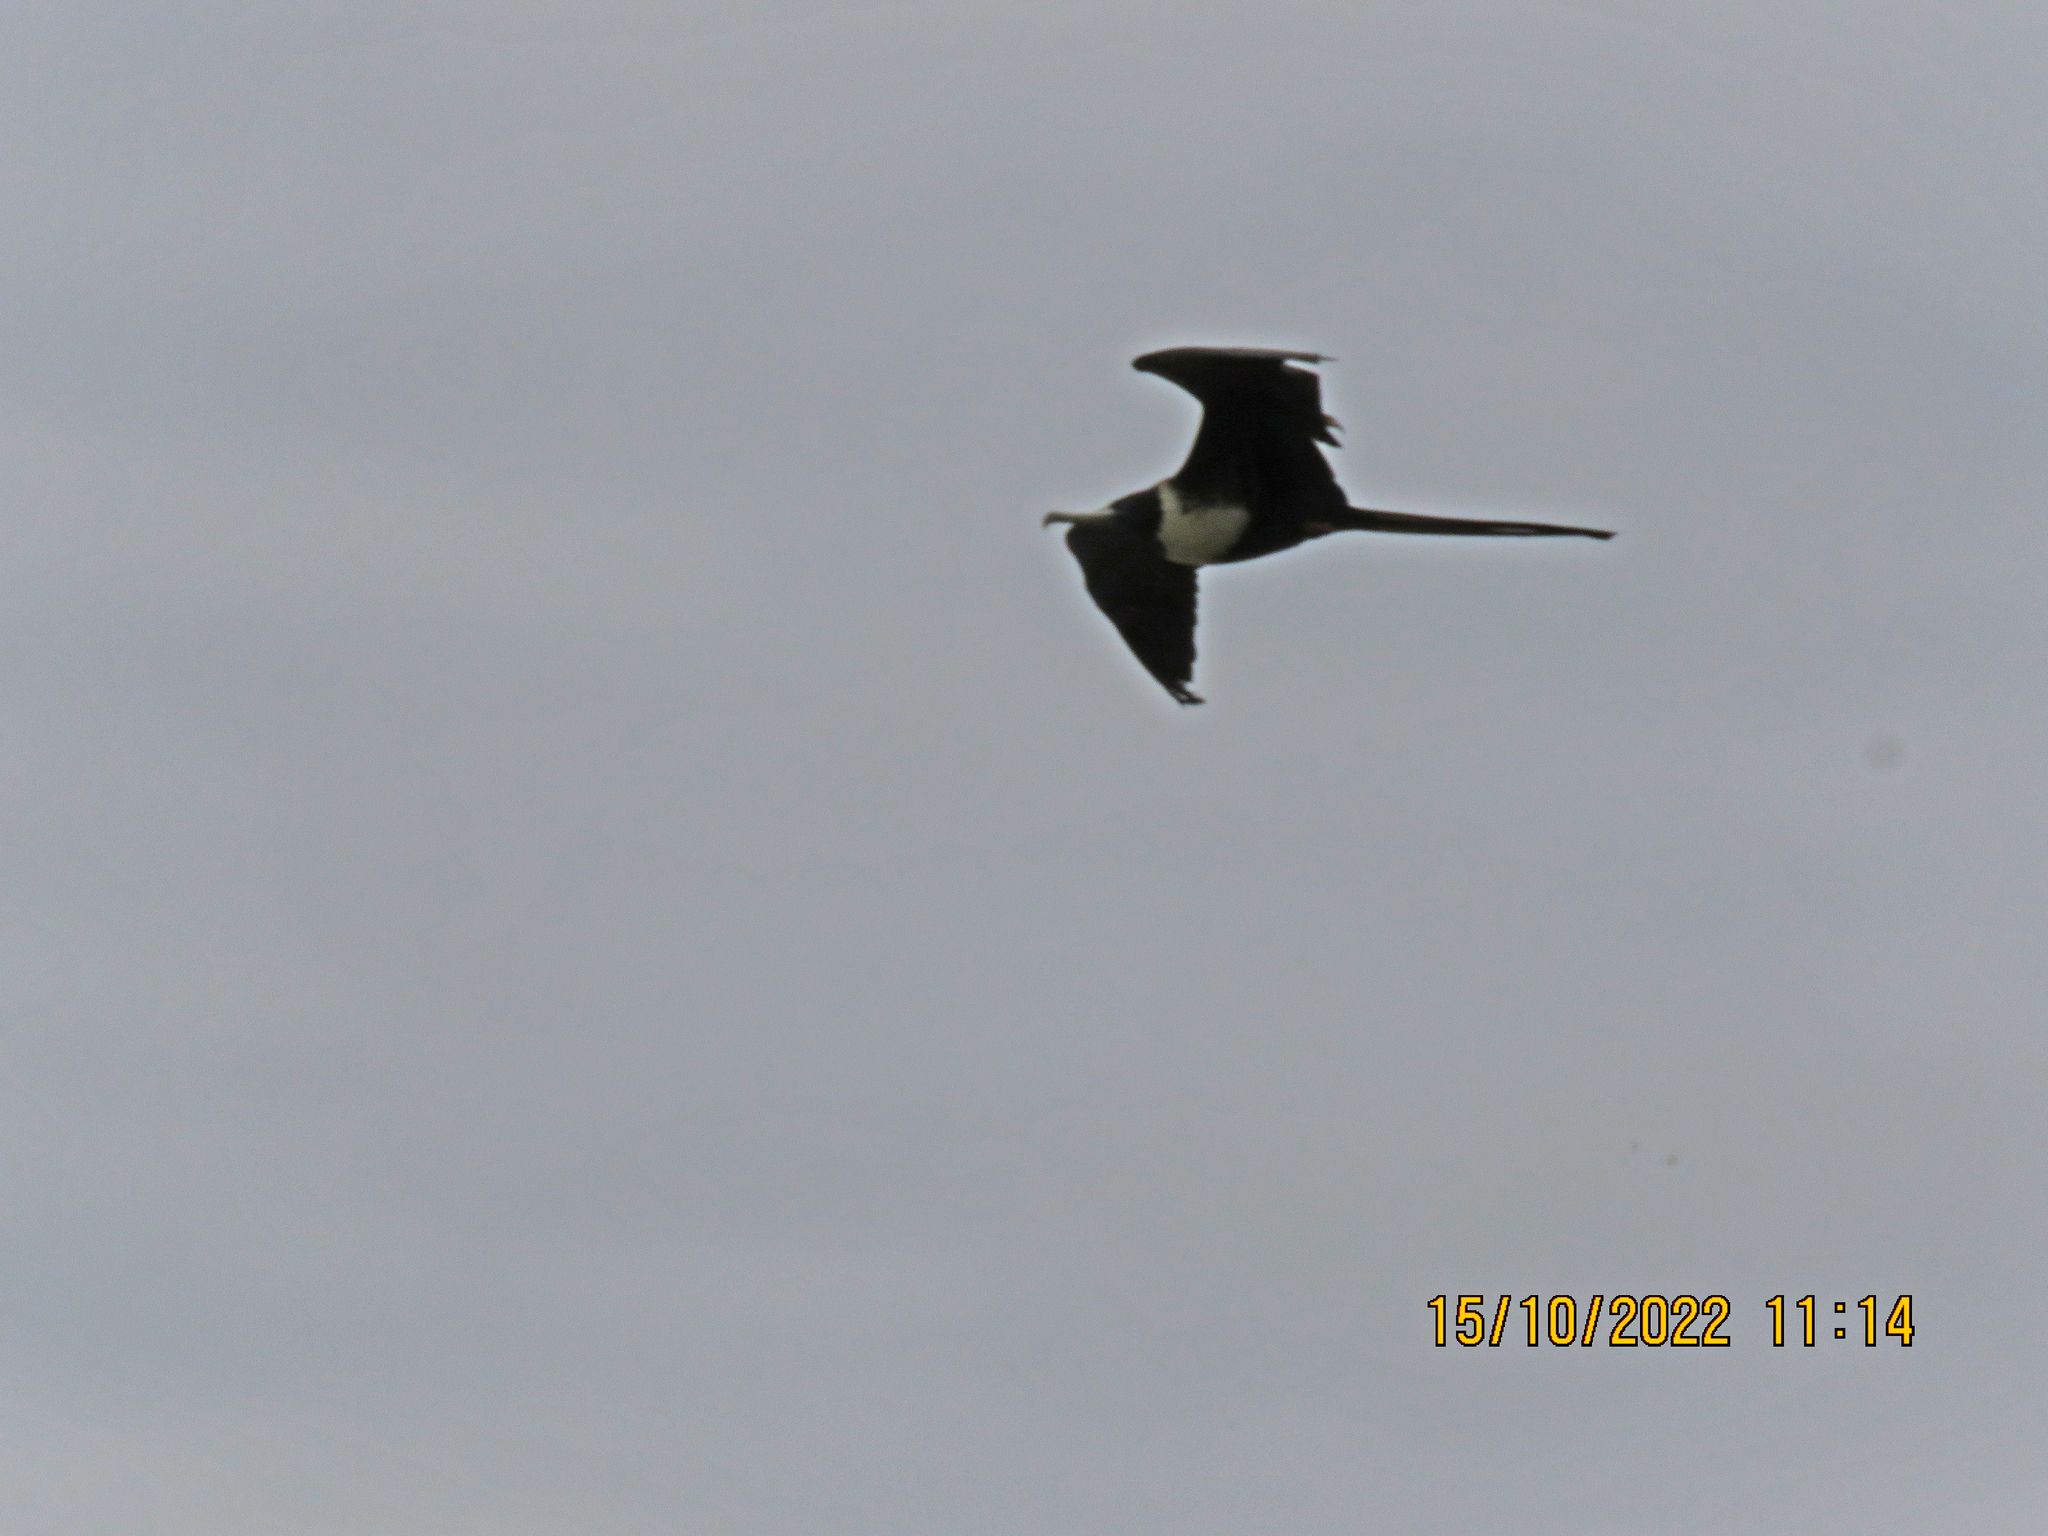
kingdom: Animalia
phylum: Chordata
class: Aves
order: Suliformes
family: Fregatidae
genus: Fregata
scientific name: Fregata magnificens
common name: Magnificent frigatebird
